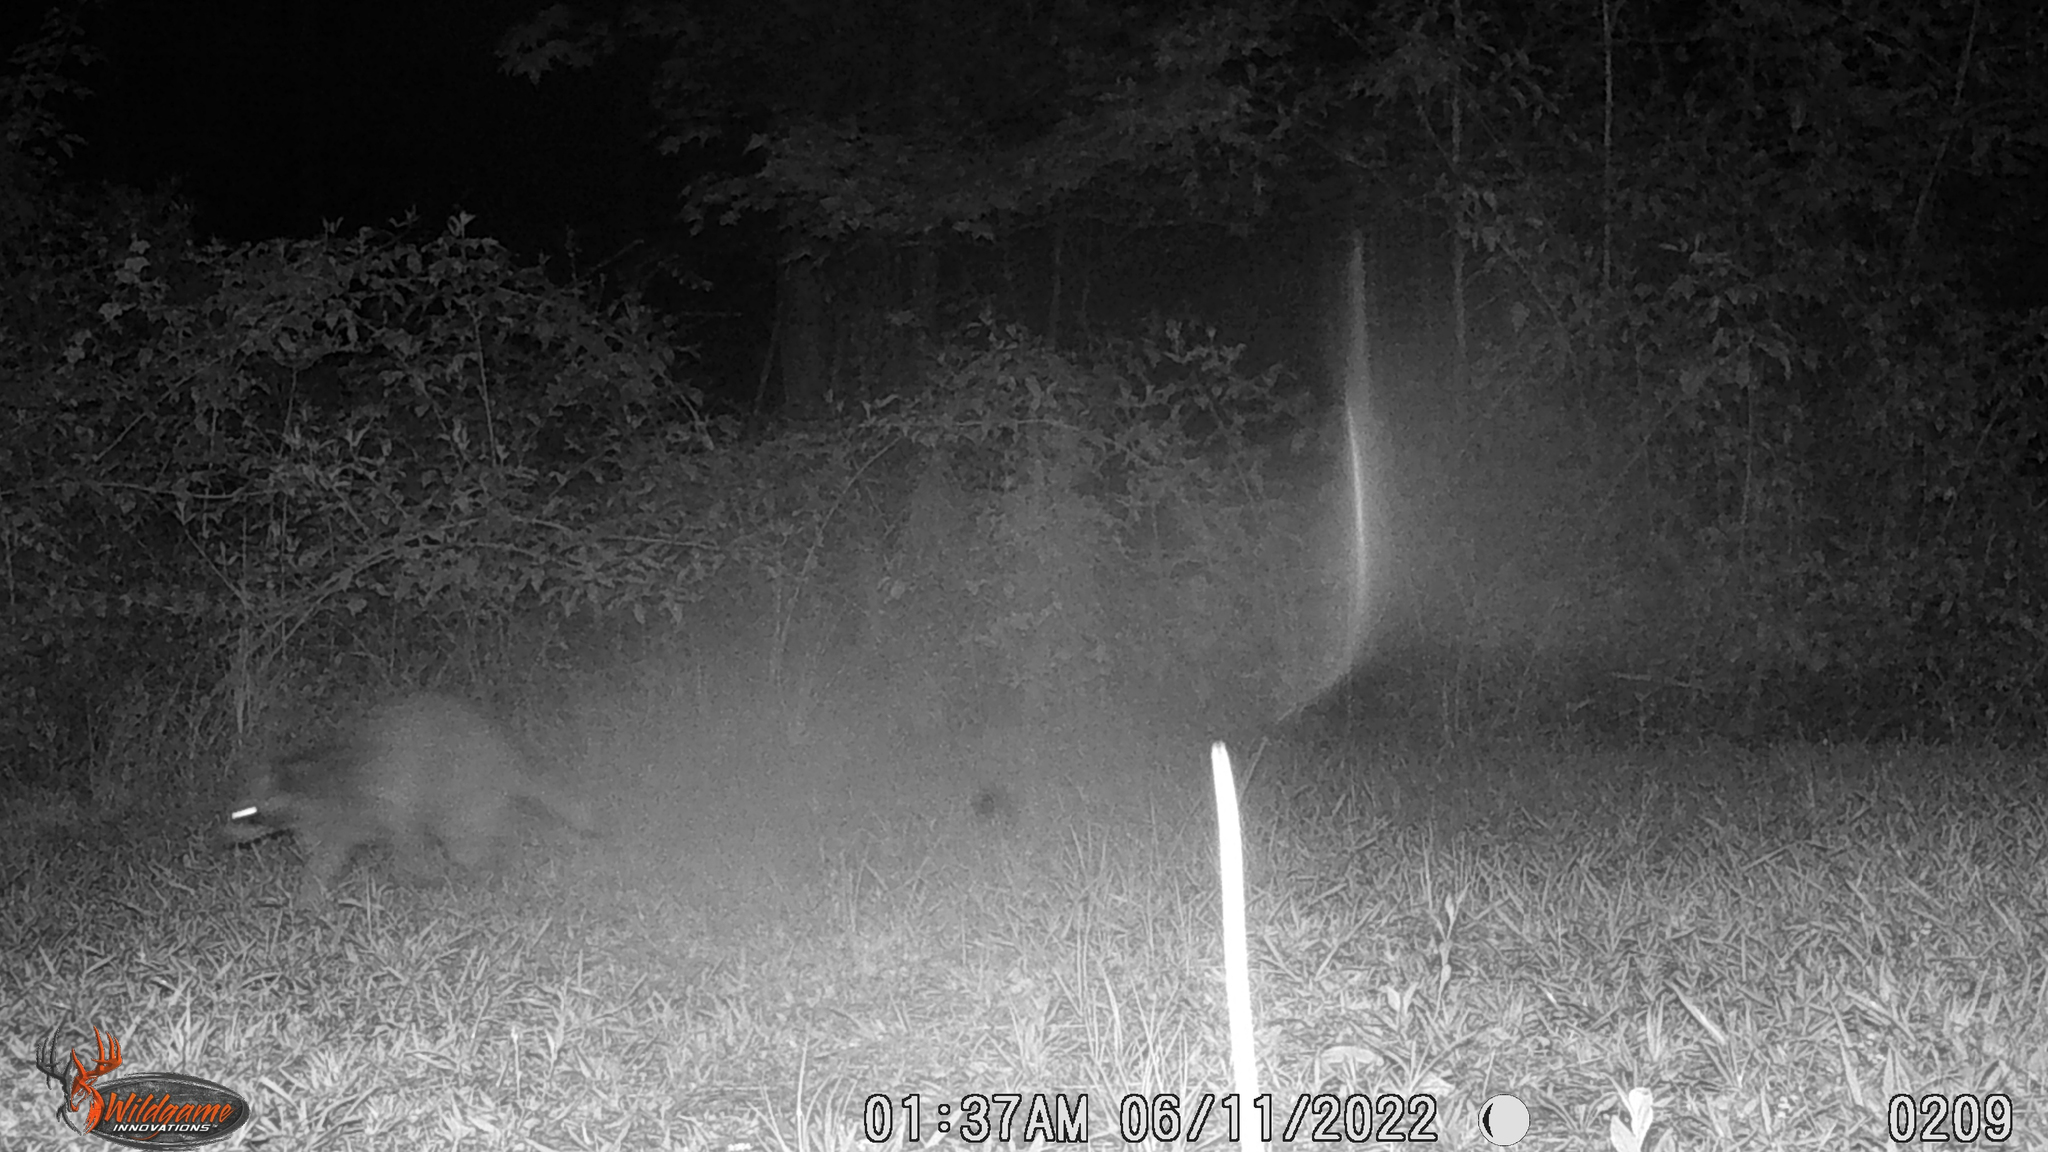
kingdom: Animalia
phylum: Chordata
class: Mammalia
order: Carnivora
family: Procyonidae
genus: Procyon
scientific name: Procyon lotor
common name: Raccoon
